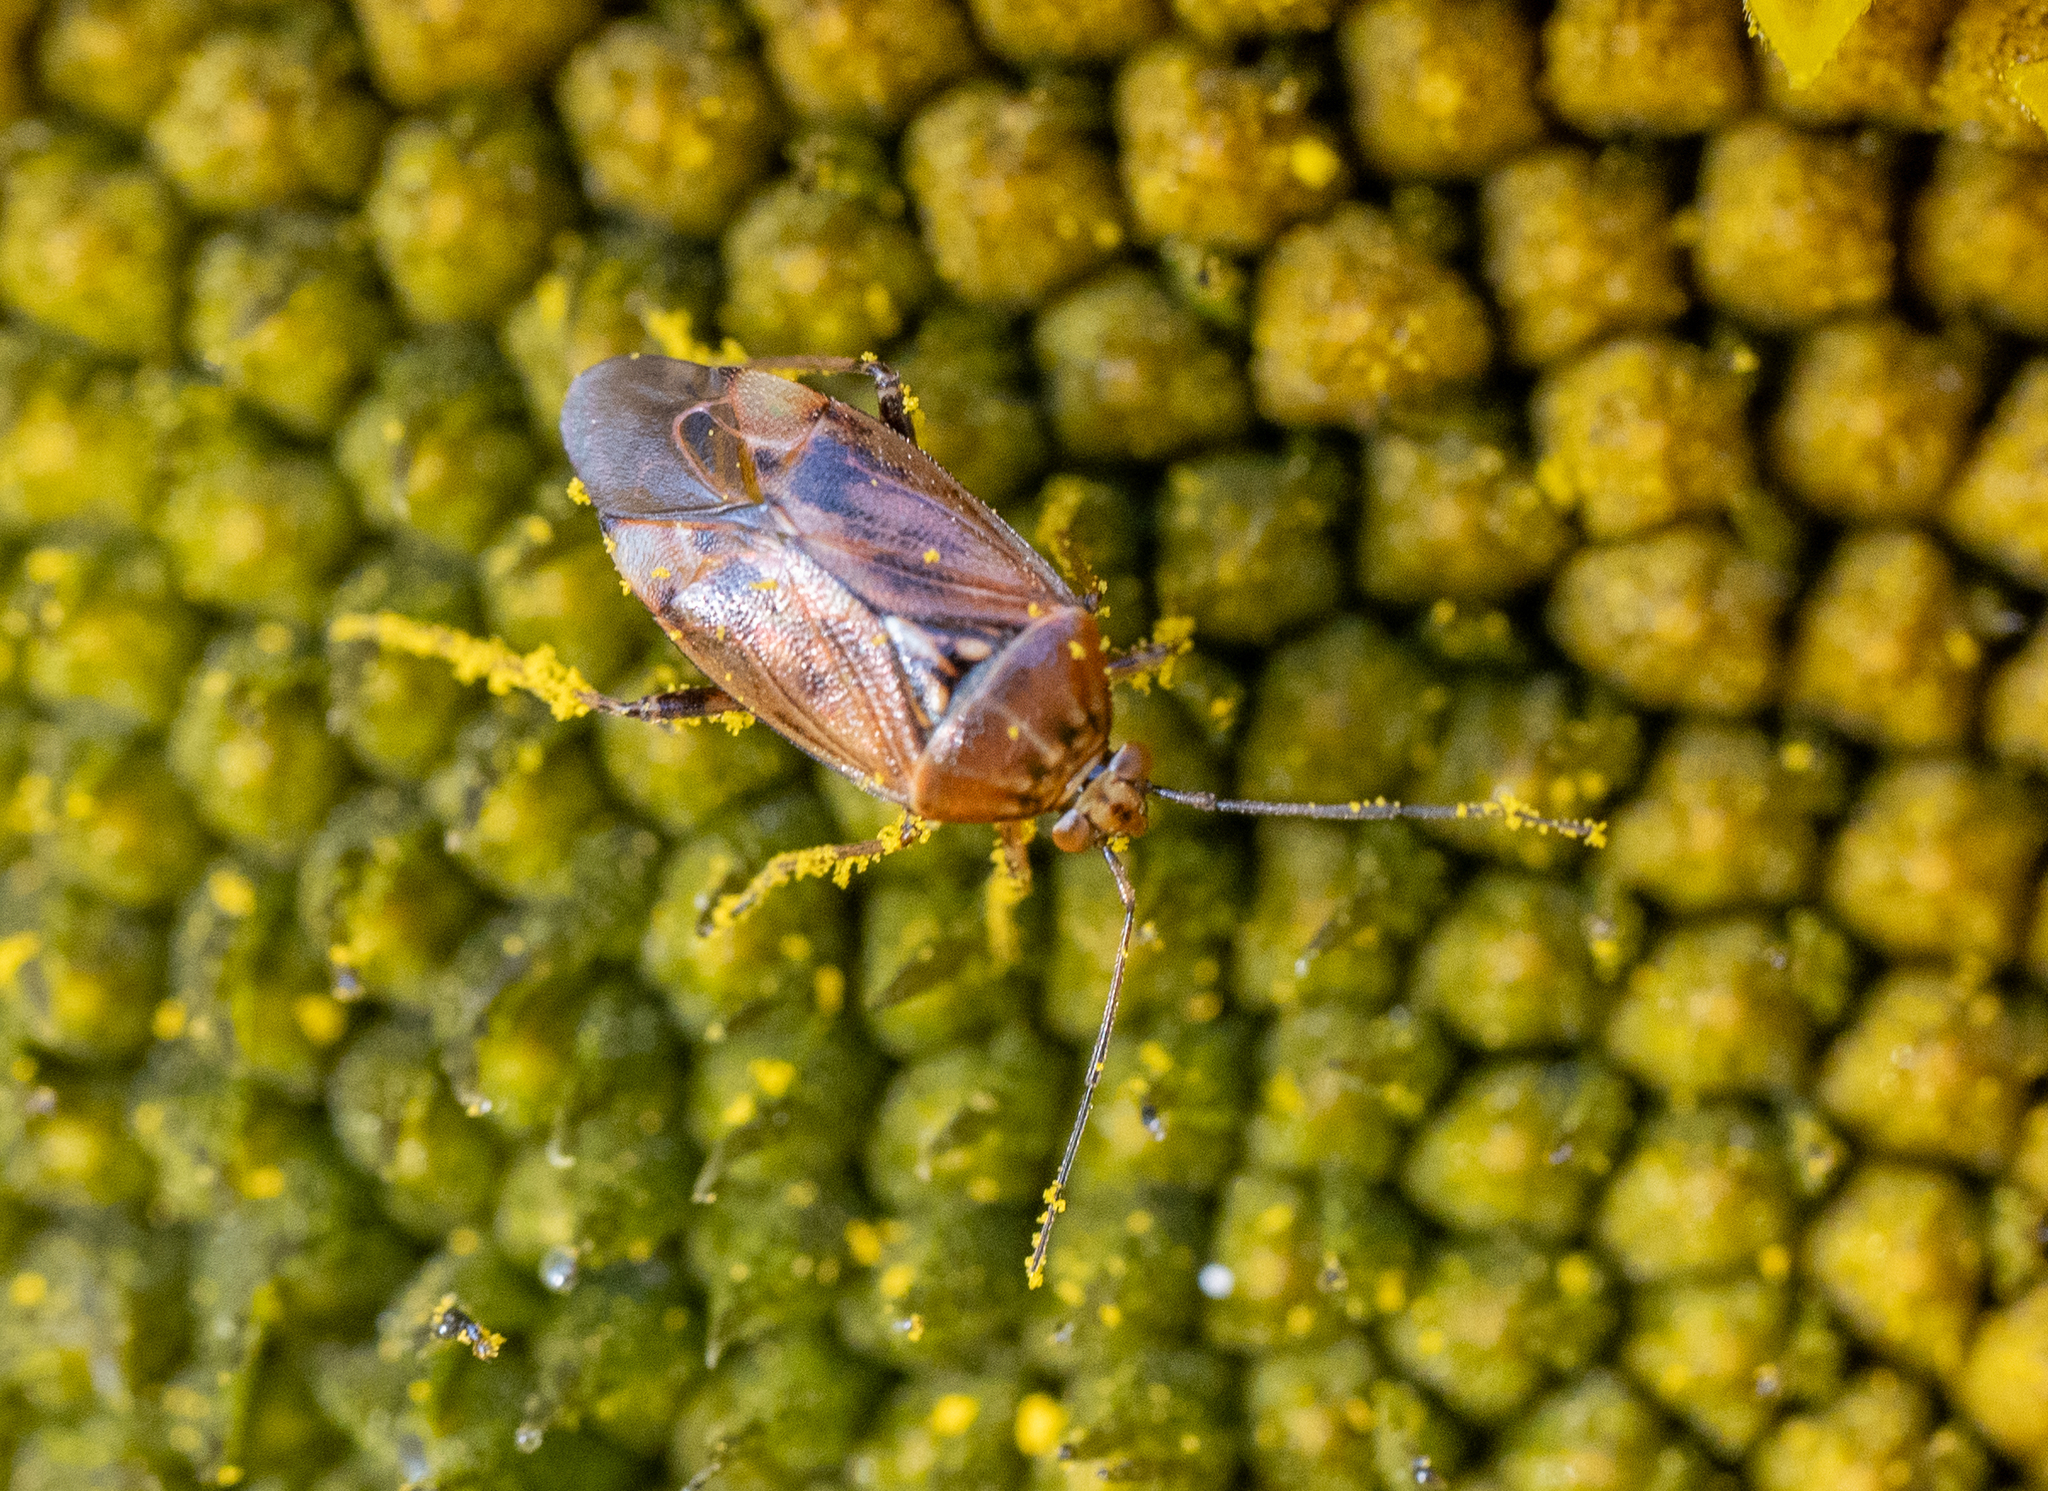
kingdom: Animalia
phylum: Arthropoda
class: Insecta
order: Hemiptera
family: Miridae
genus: Lygus
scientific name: Lygus wagneri
